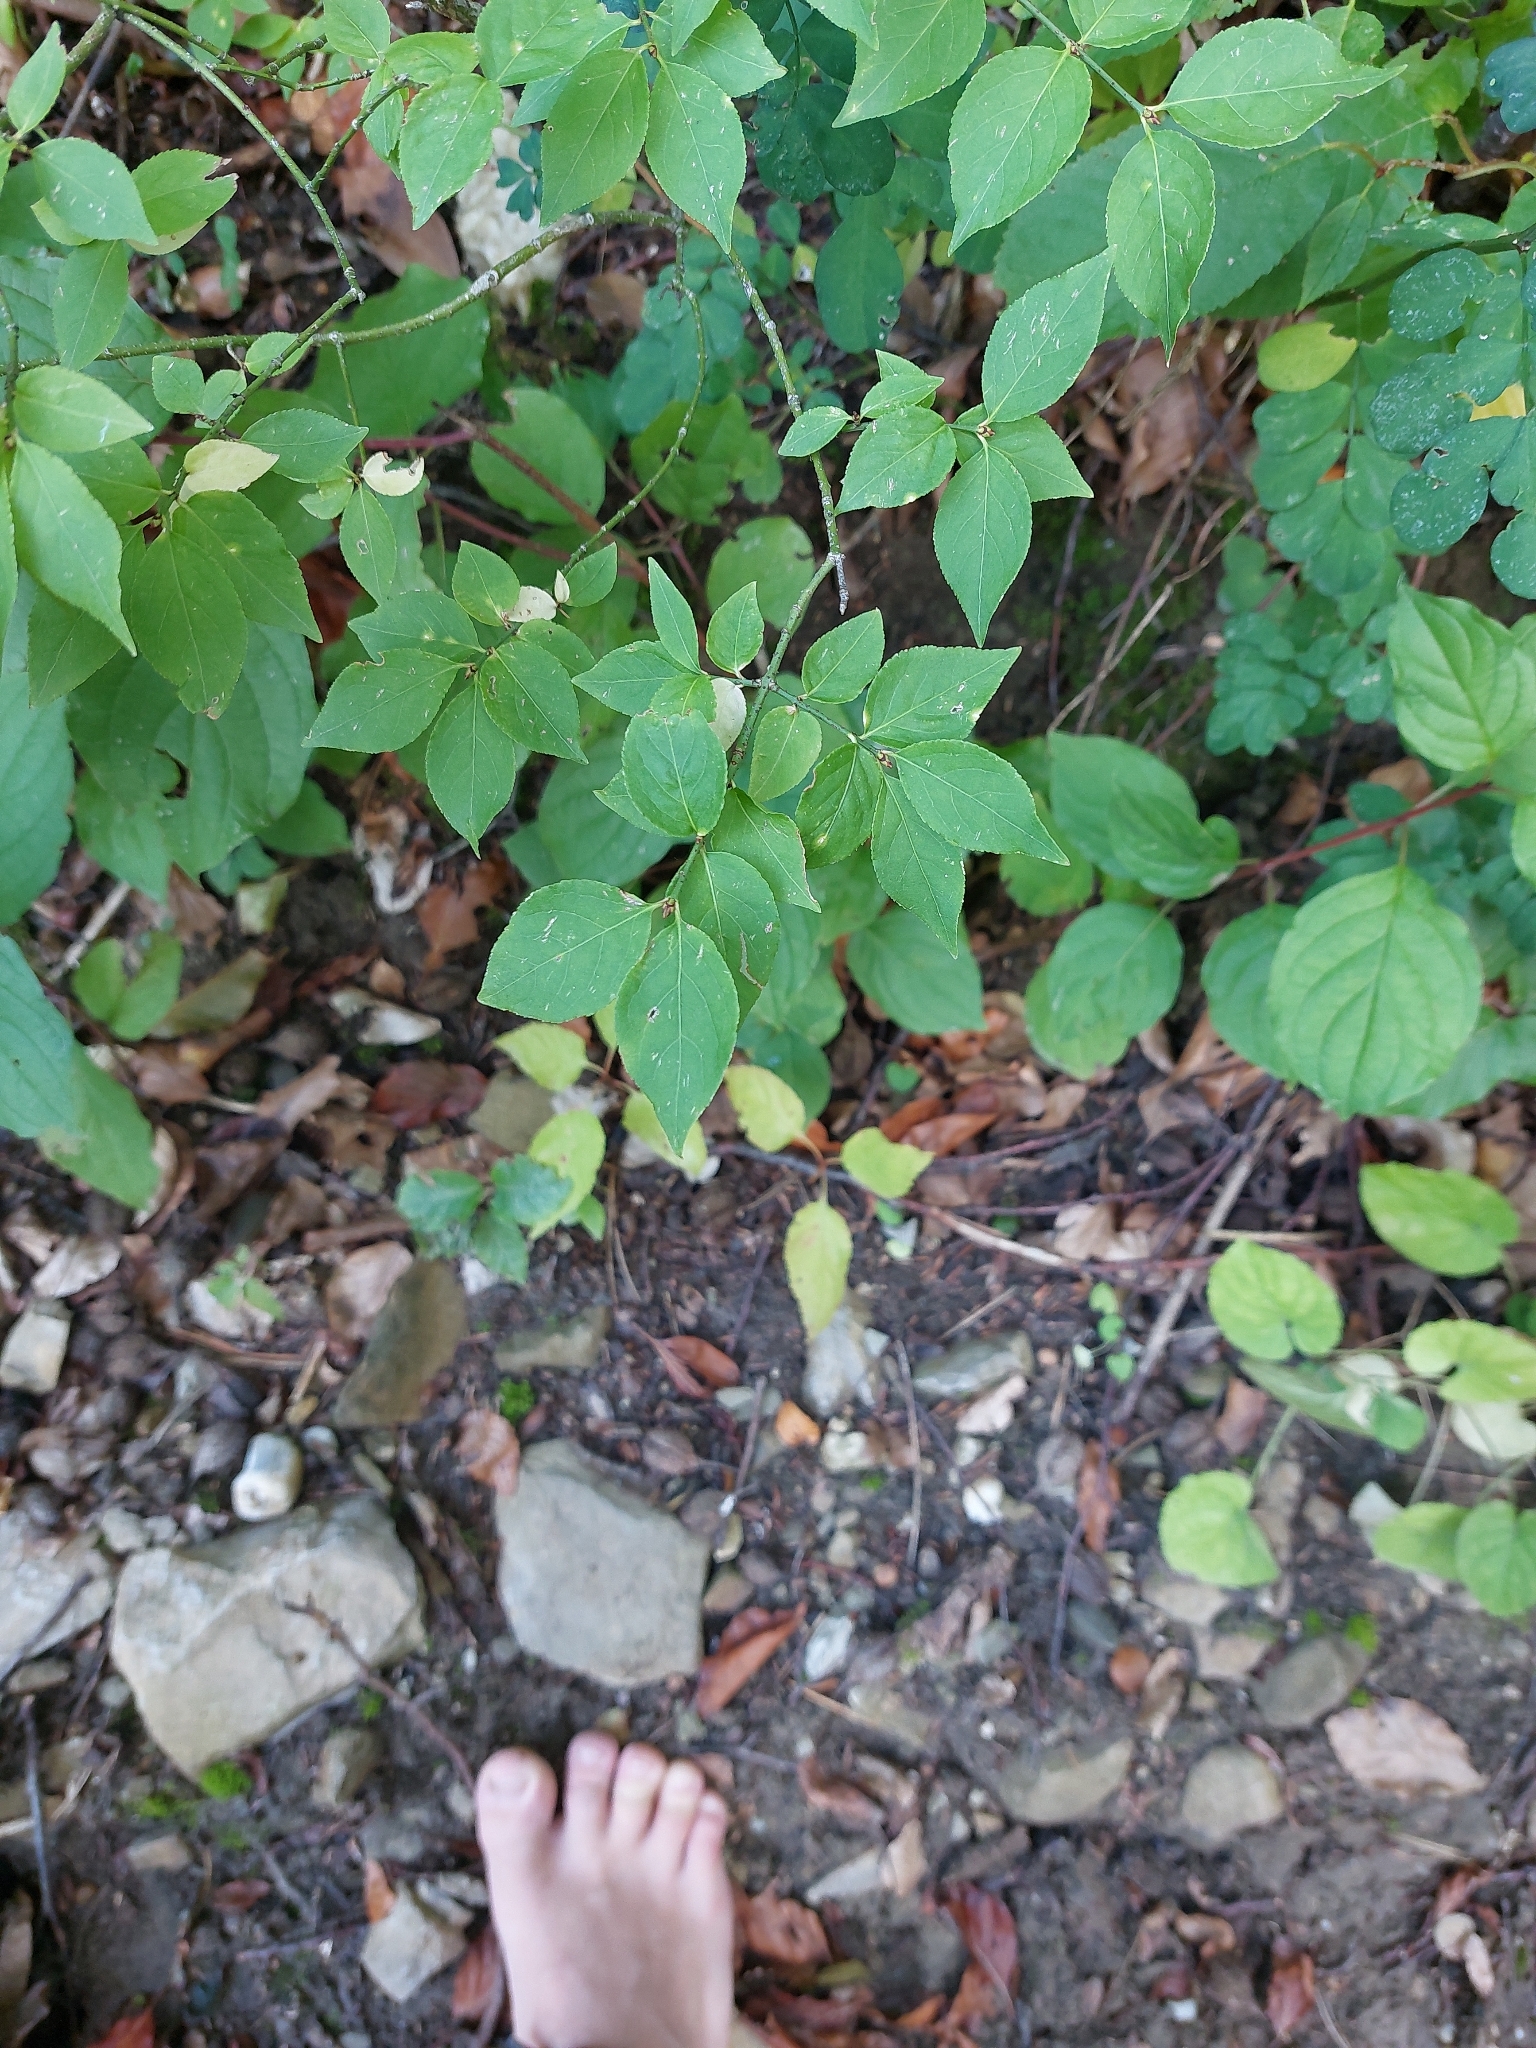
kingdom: Plantae
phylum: Tracheophyta
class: Magnoliopsida
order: Celastrales
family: Celastraceae
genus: Euonymus
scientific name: Euonymus verrucosus
